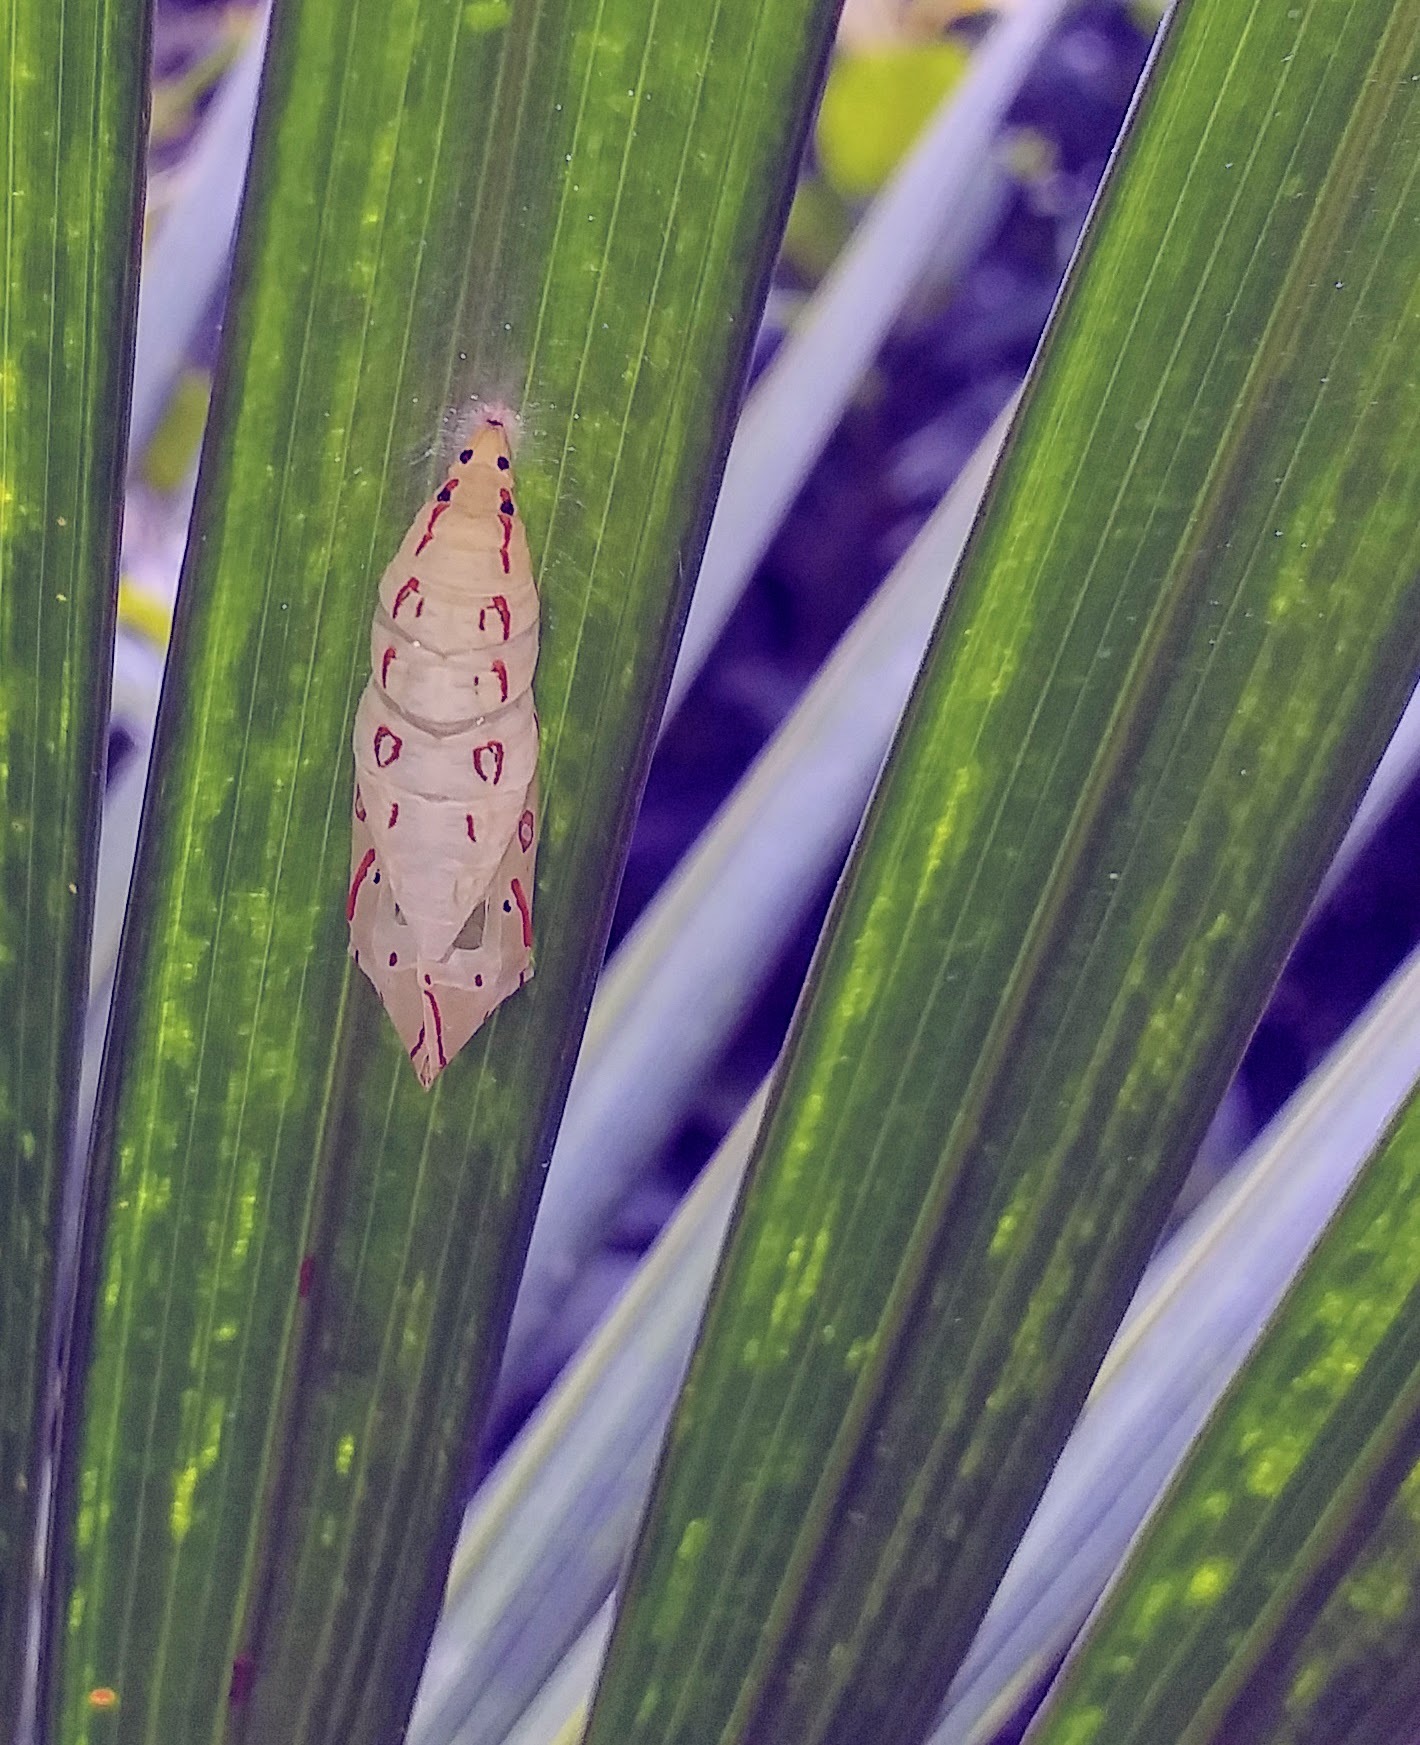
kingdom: Animalia
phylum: Arthropoda
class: Insecta
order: Lepidoptera
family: Nymphalidae
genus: Elymnias
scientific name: Elymnias caudata
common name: Tailed palmfly
